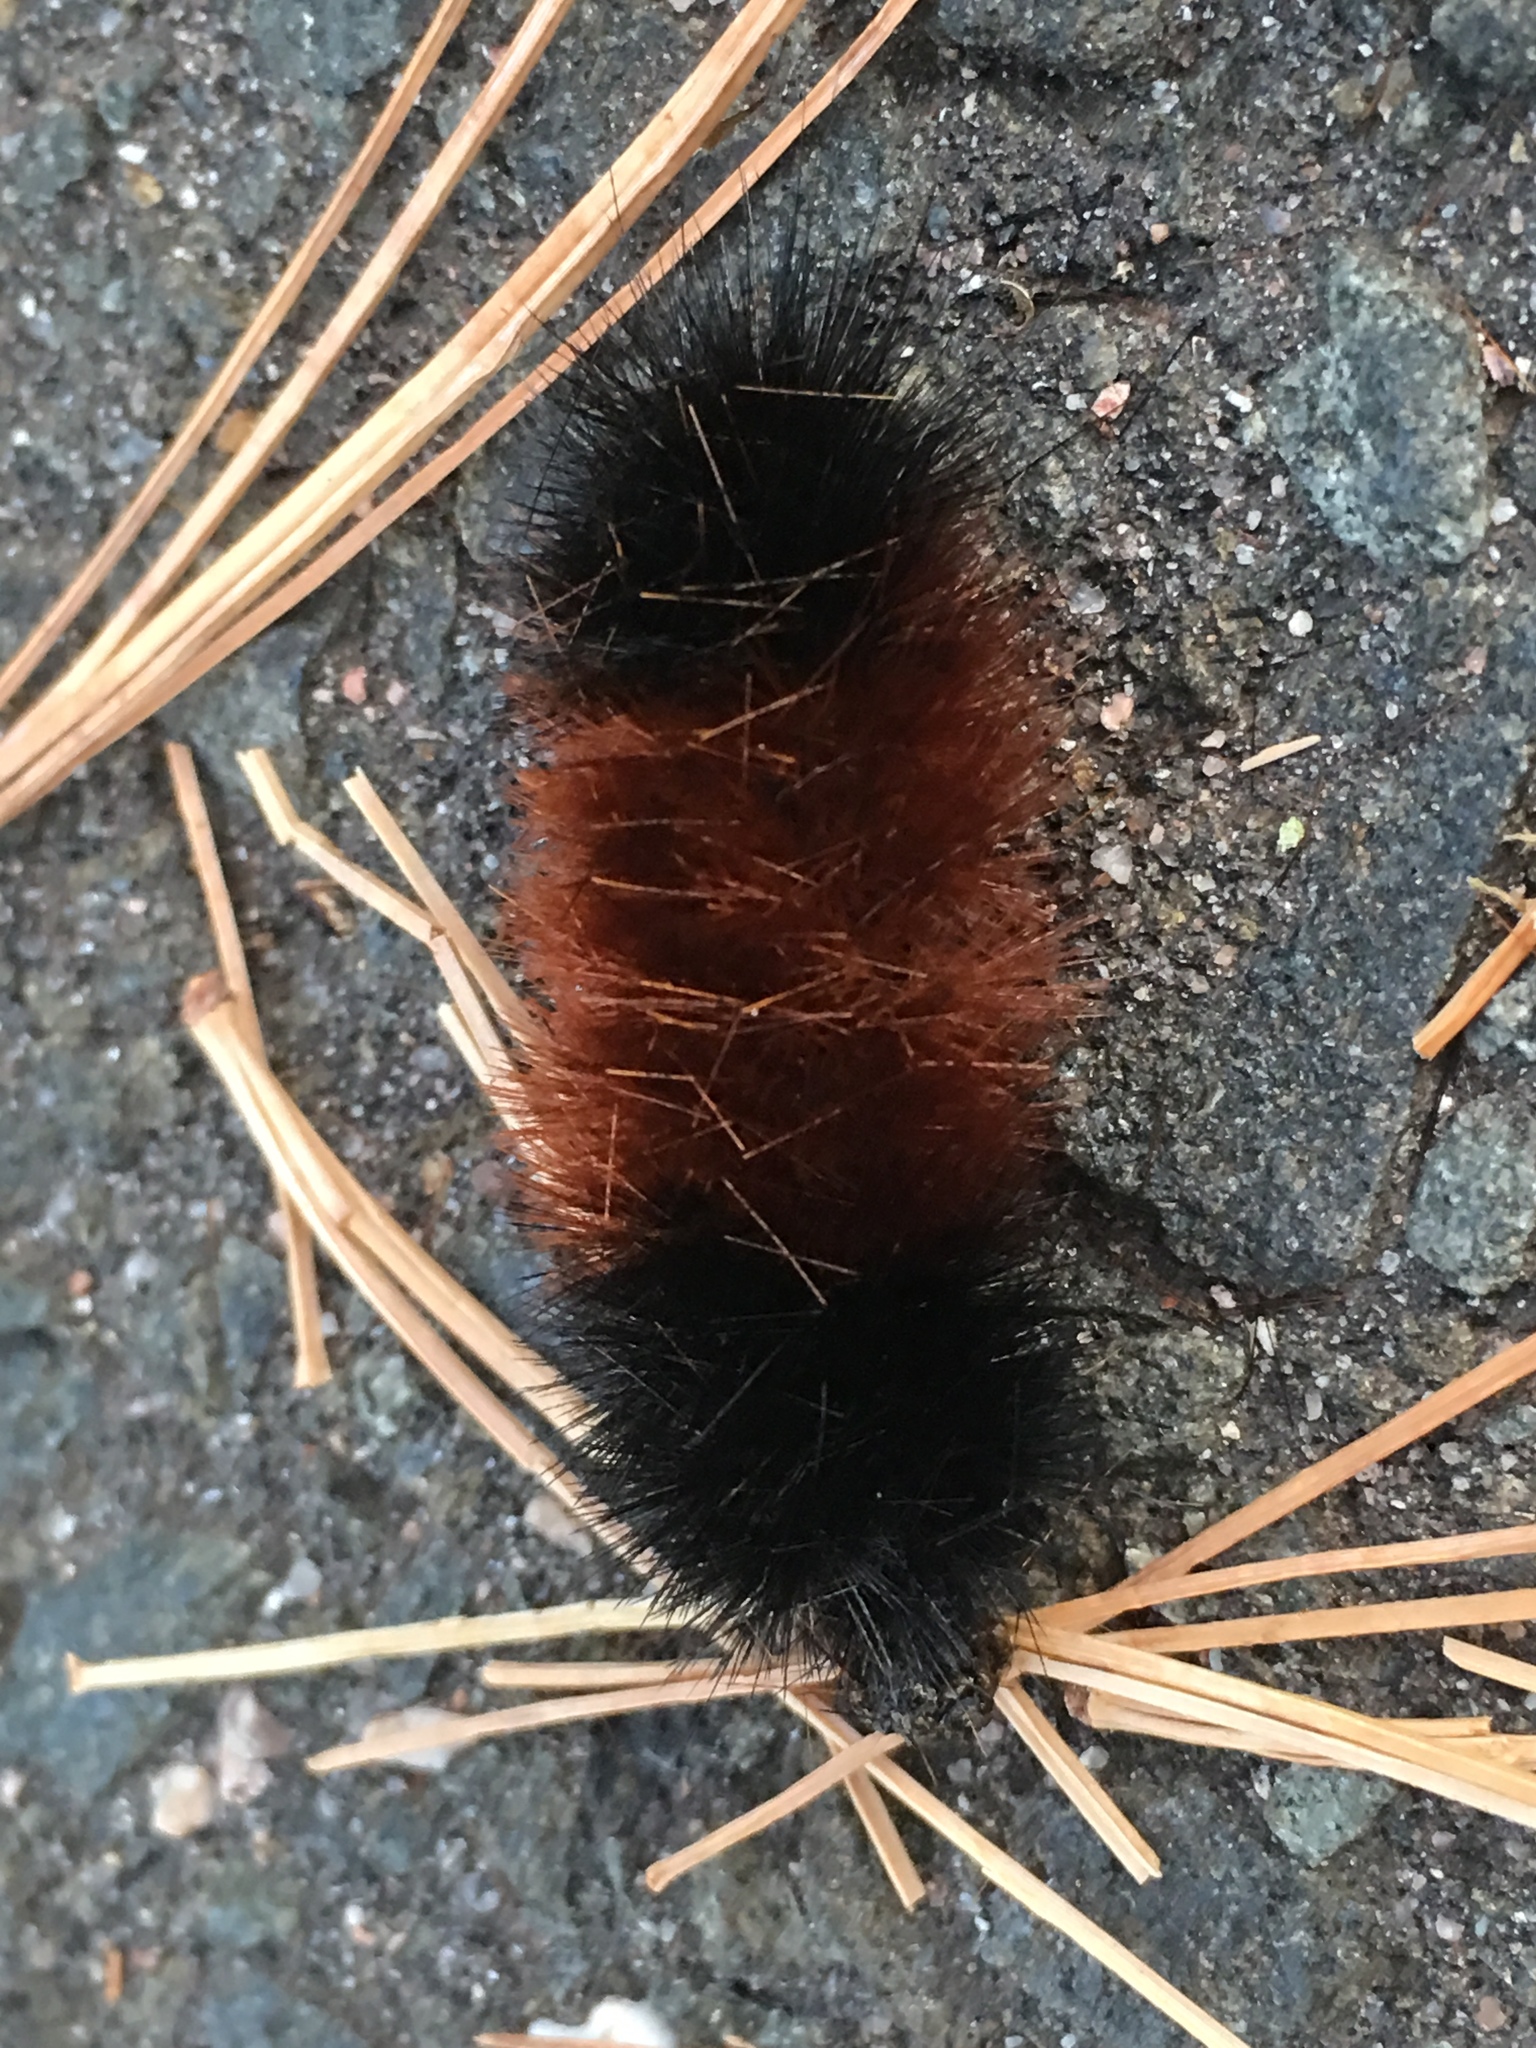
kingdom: Animalia
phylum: Arthropoda
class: Insecta
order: Lepidoptera
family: Erebidae
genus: Pyrrharctia
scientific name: Pyrrharctia isabella
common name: Isabella tiger moth
